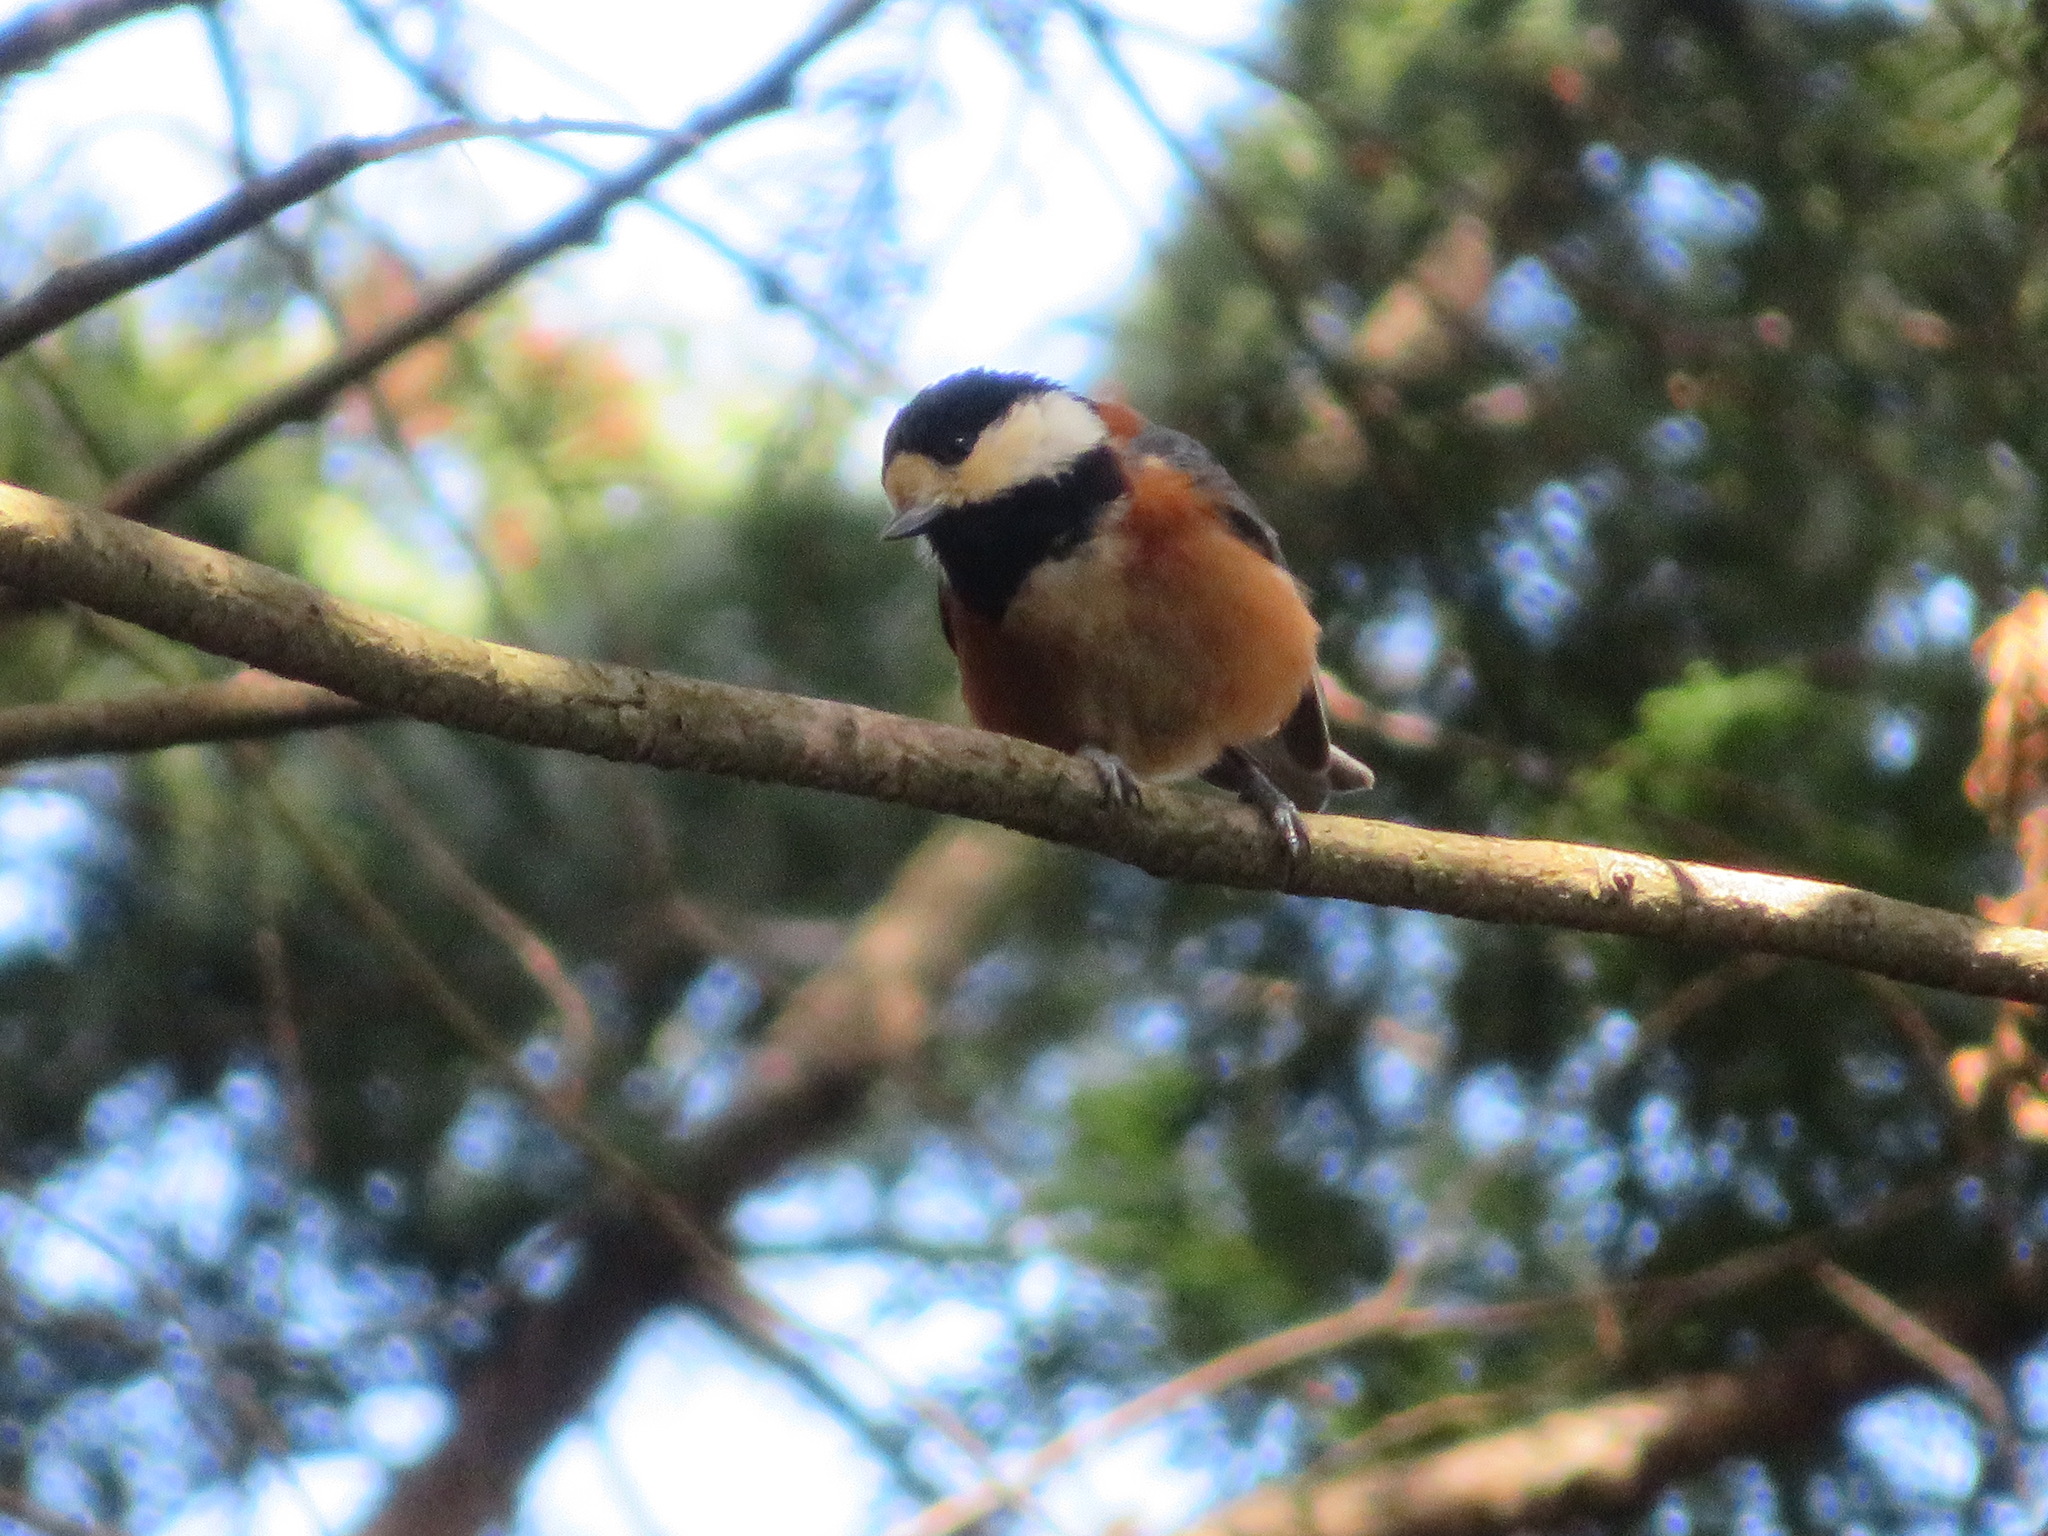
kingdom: Animalia
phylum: Chordata
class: Aves
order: Passeriformes
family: Paridae
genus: Poecile
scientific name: Poecile varius
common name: Varied tit
